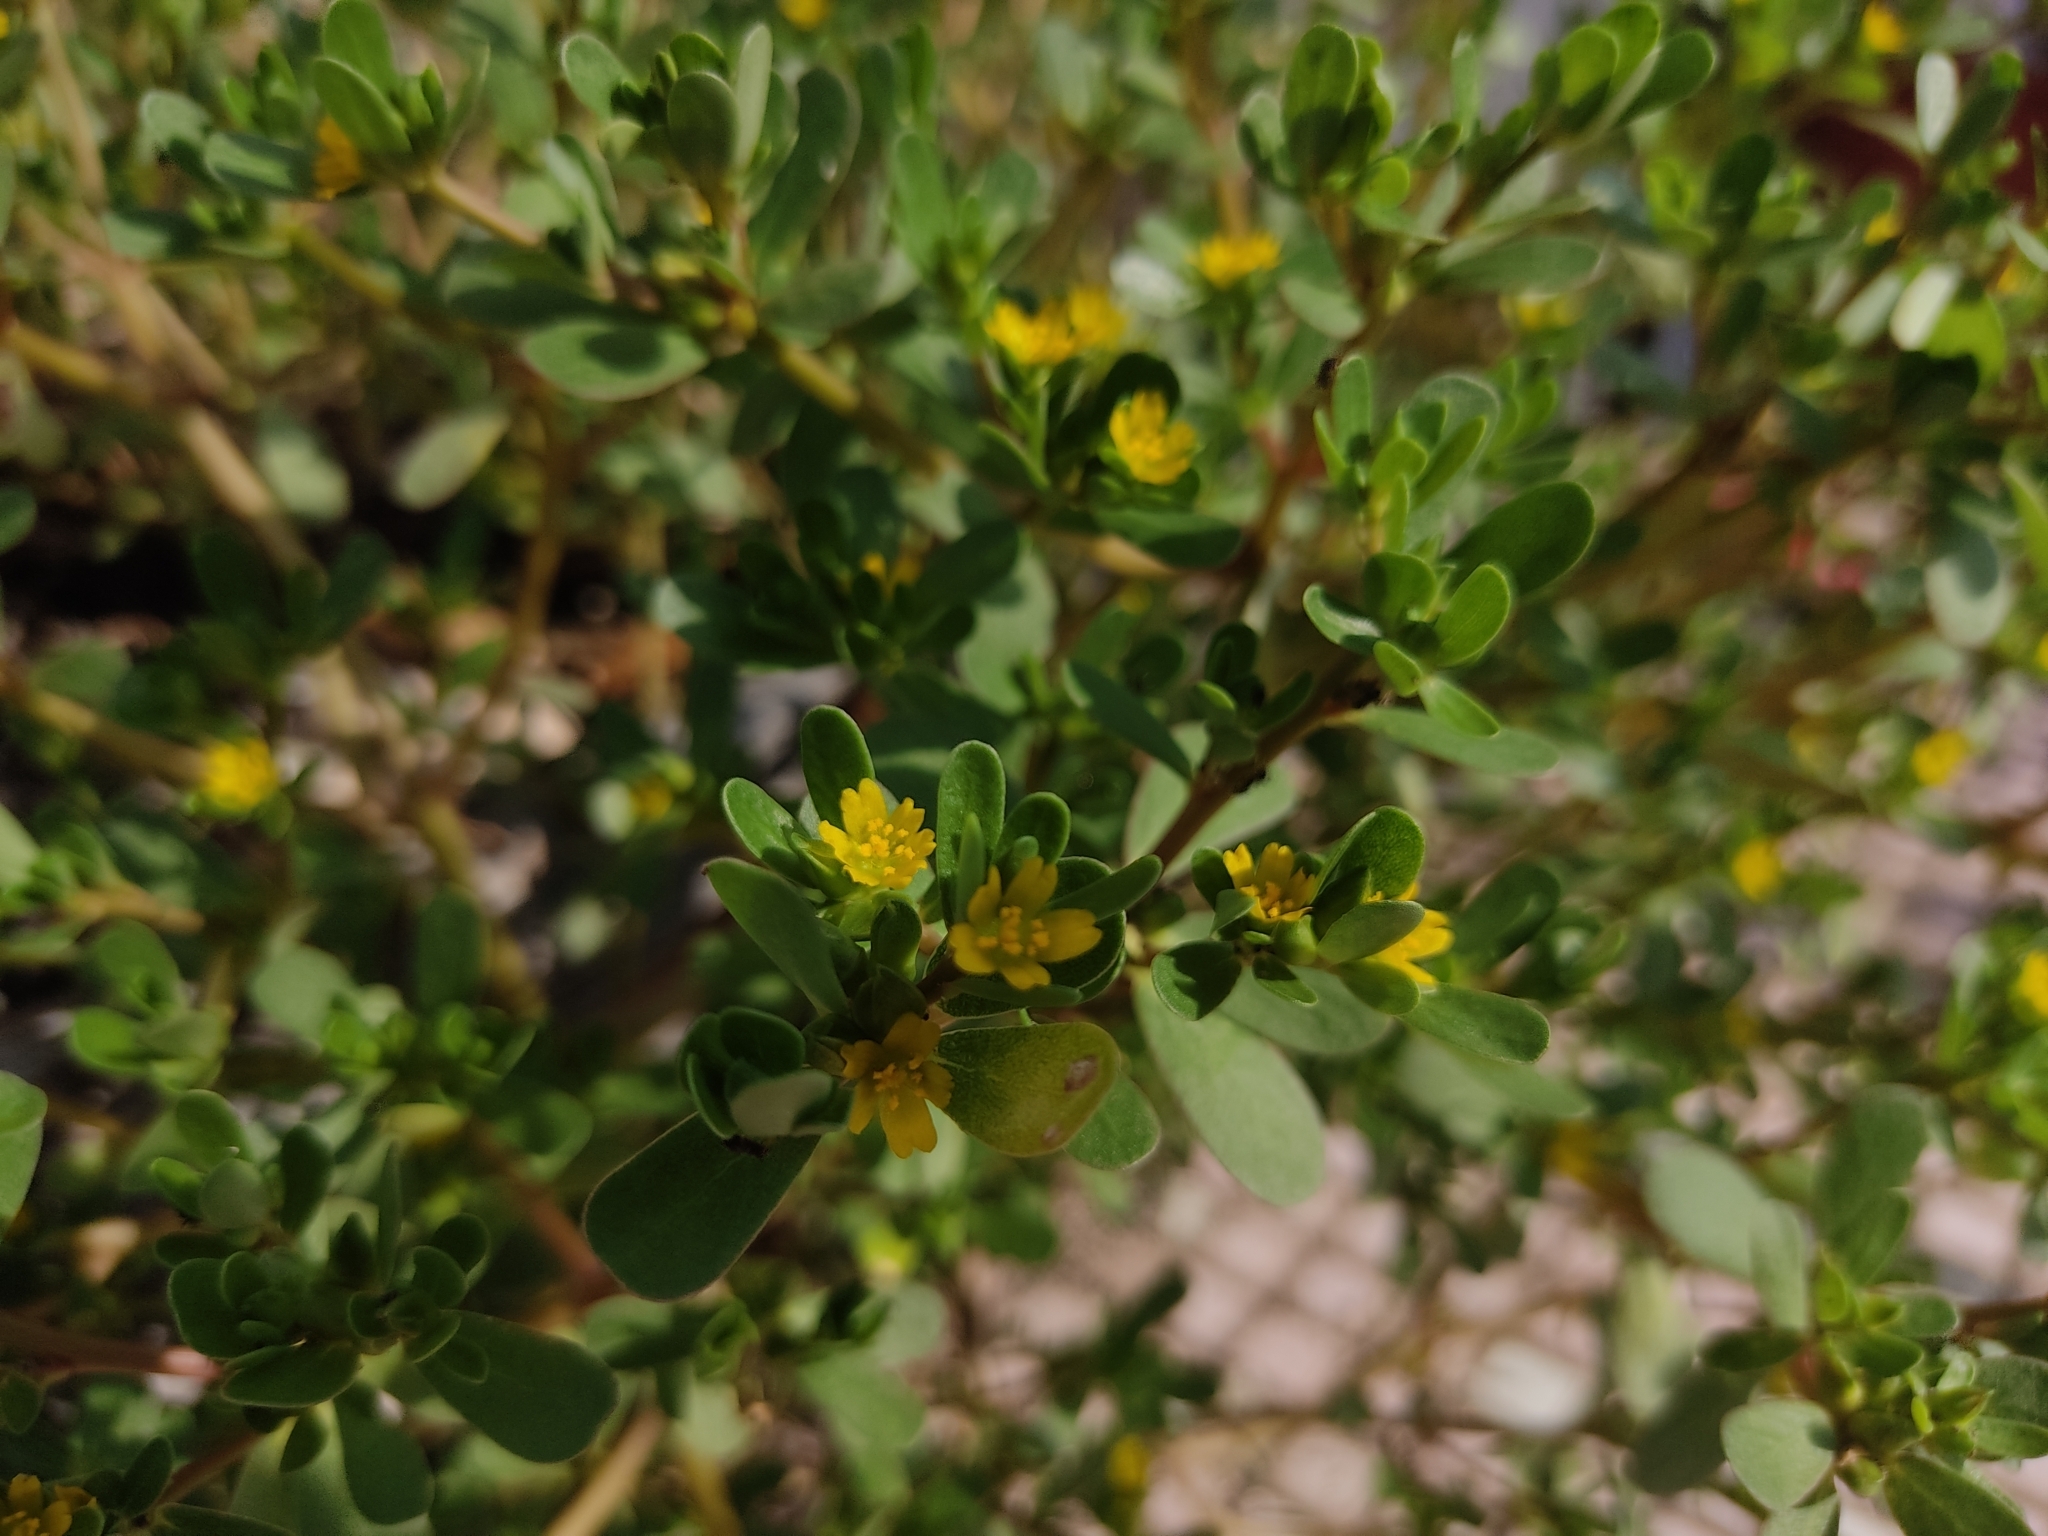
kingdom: Plantae
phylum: Tracheophyta
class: Magnoliopsida
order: Caryophyllales
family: Portulacaceae
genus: Portulaca
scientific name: Portulaca oleracea
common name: Common purslane
